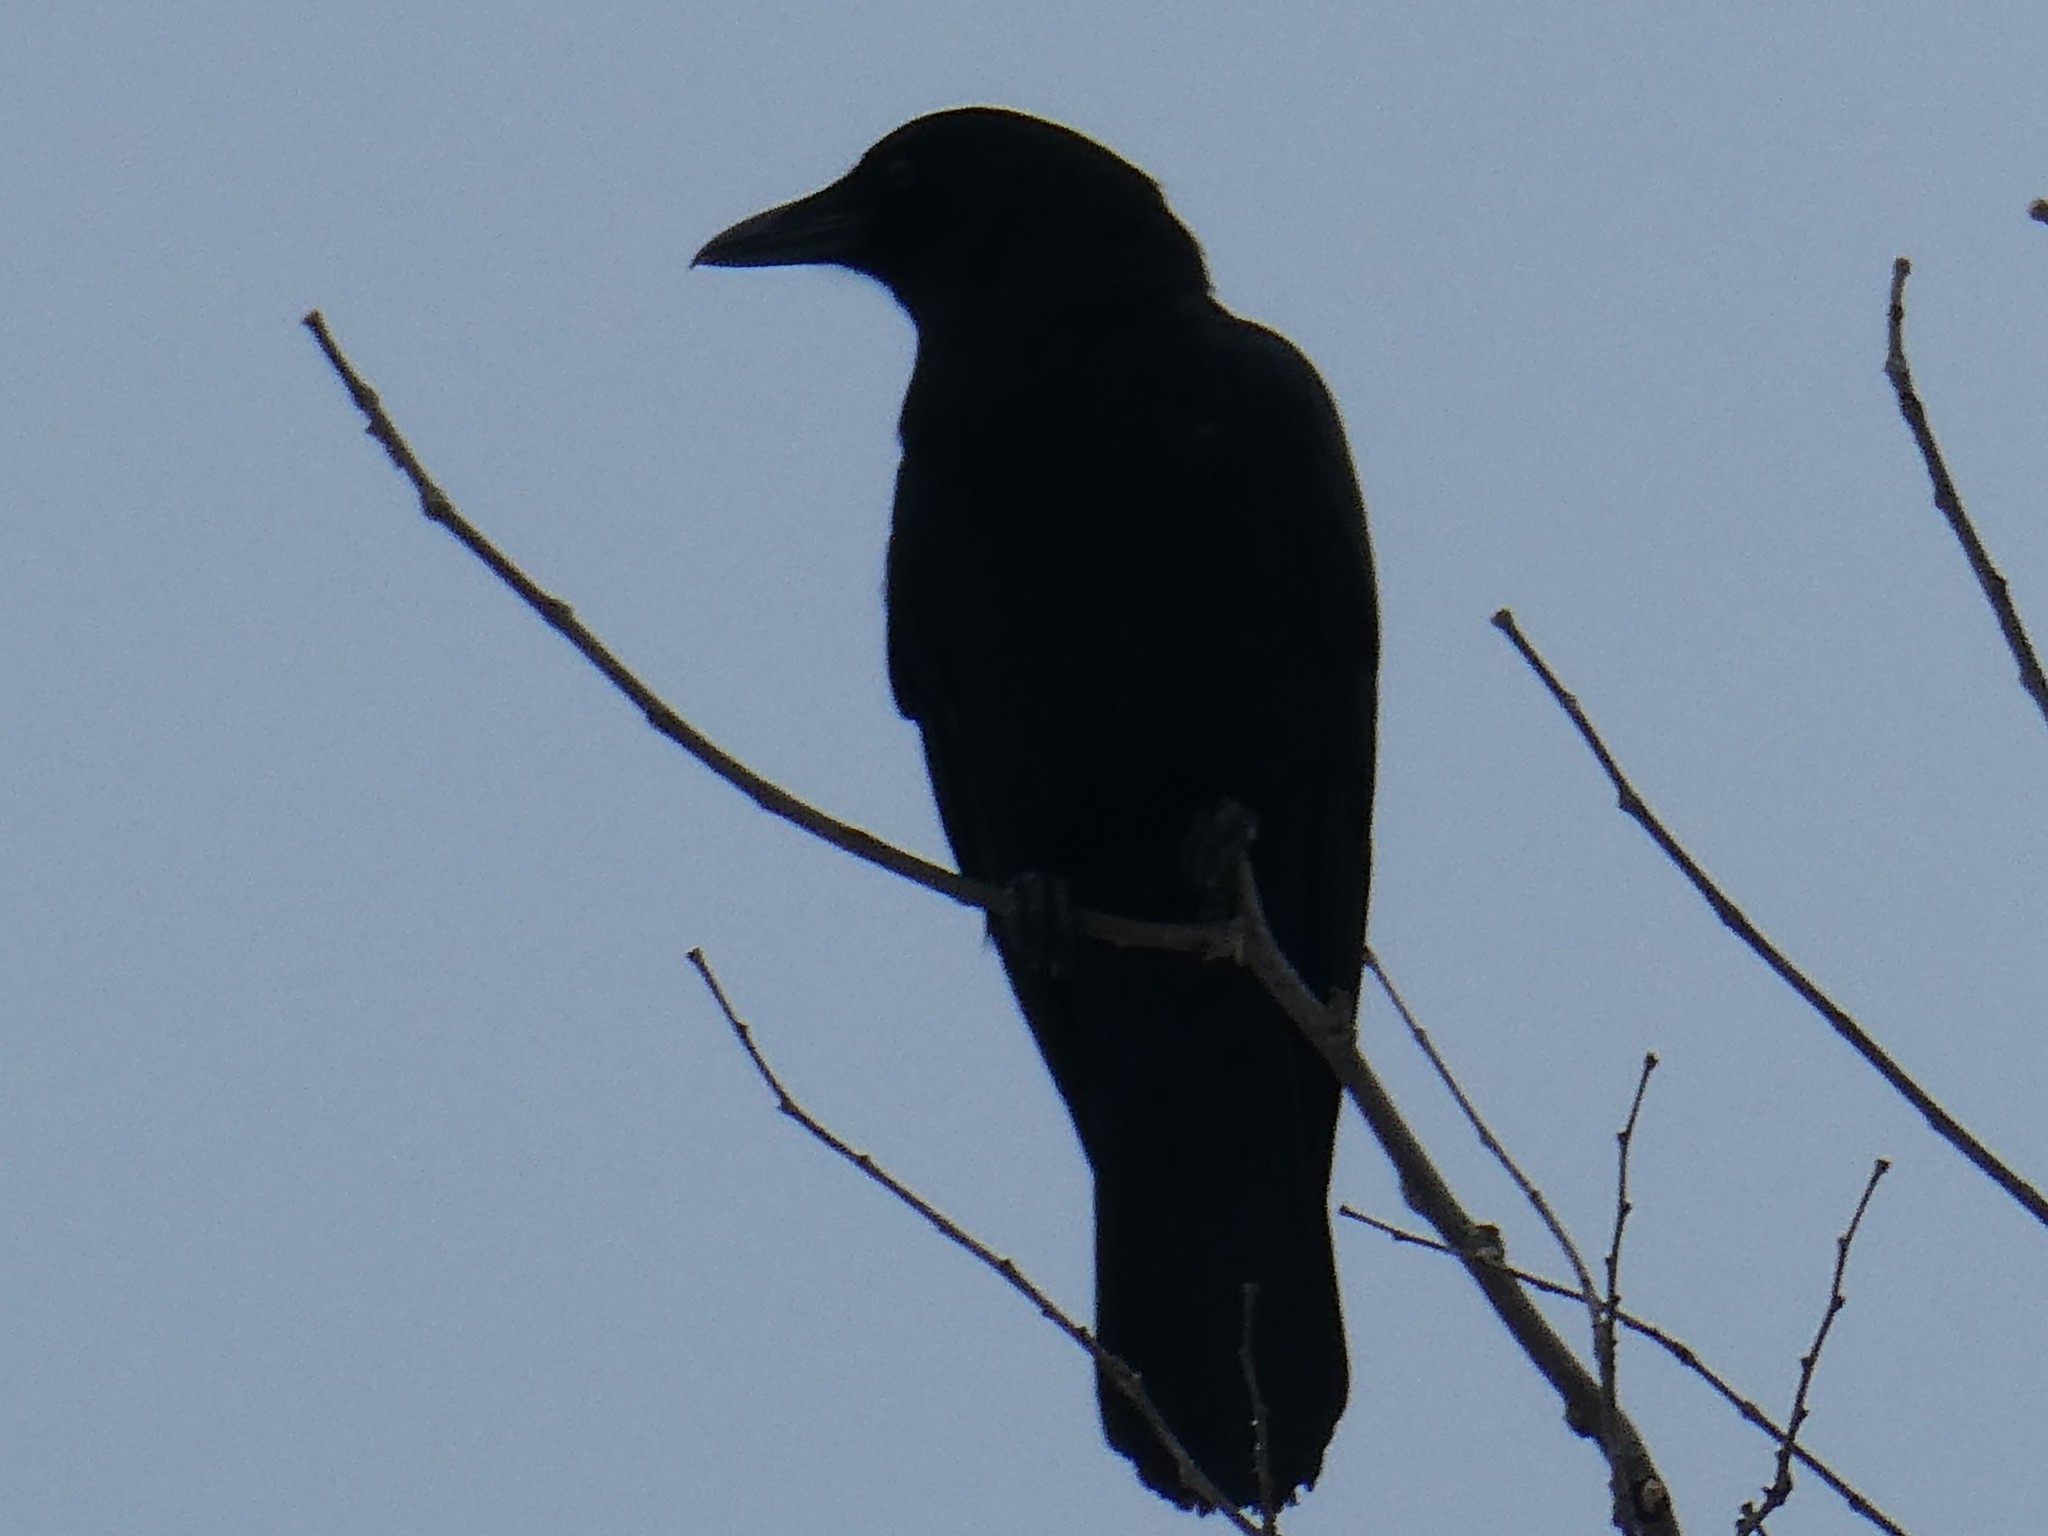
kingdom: Animalia
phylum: Chordata
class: Aves
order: Passeriformes
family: Corvidae
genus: Corvus
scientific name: Corvus brachyrhynchos
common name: American crow
